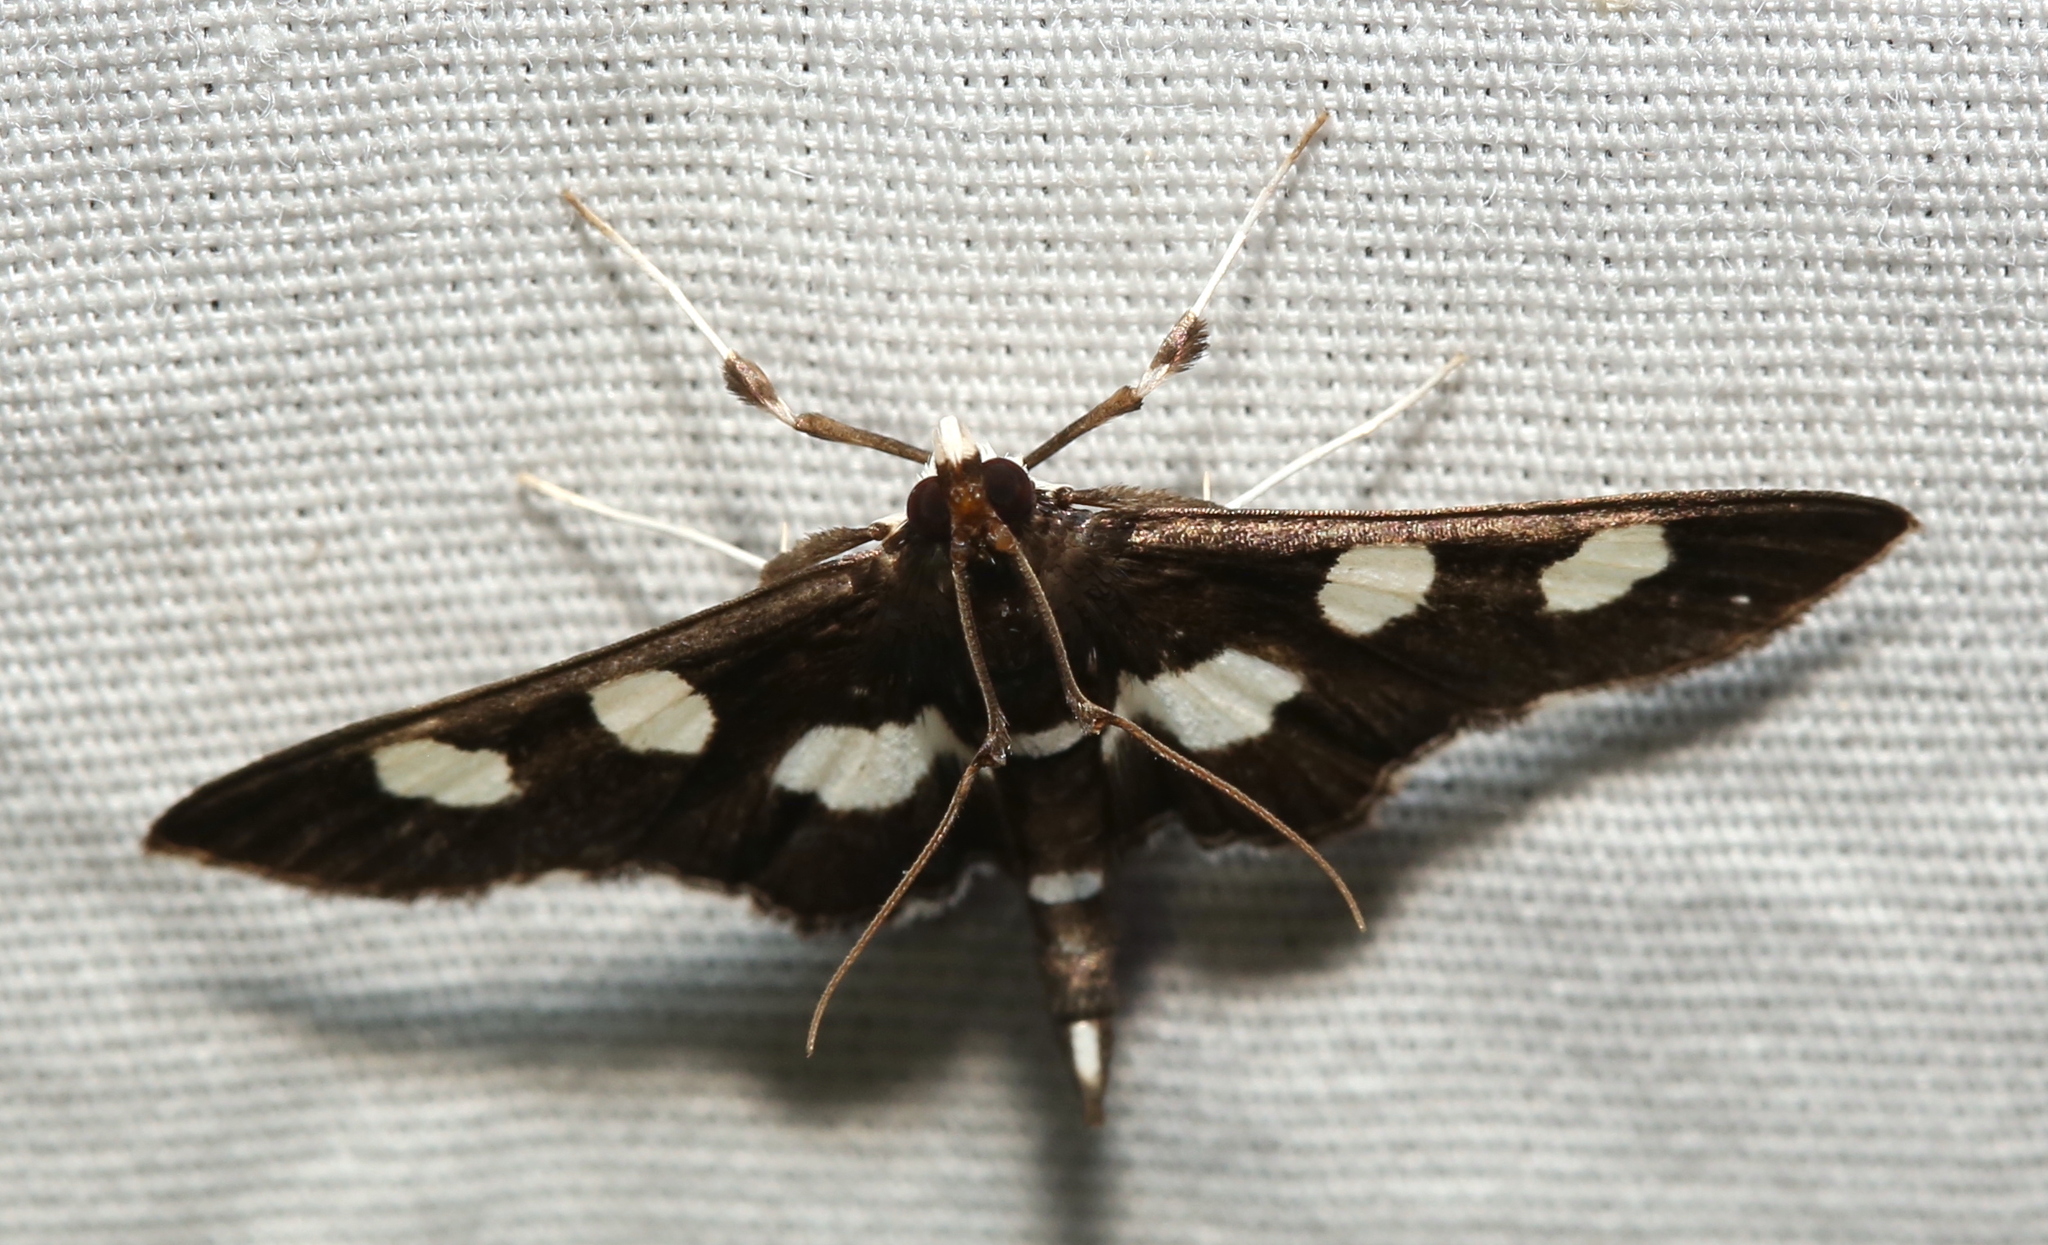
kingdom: Animalia
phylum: Arthropoda
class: Insecta
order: Lepidoptera
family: Crambidae
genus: Desmia
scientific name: Desmia
